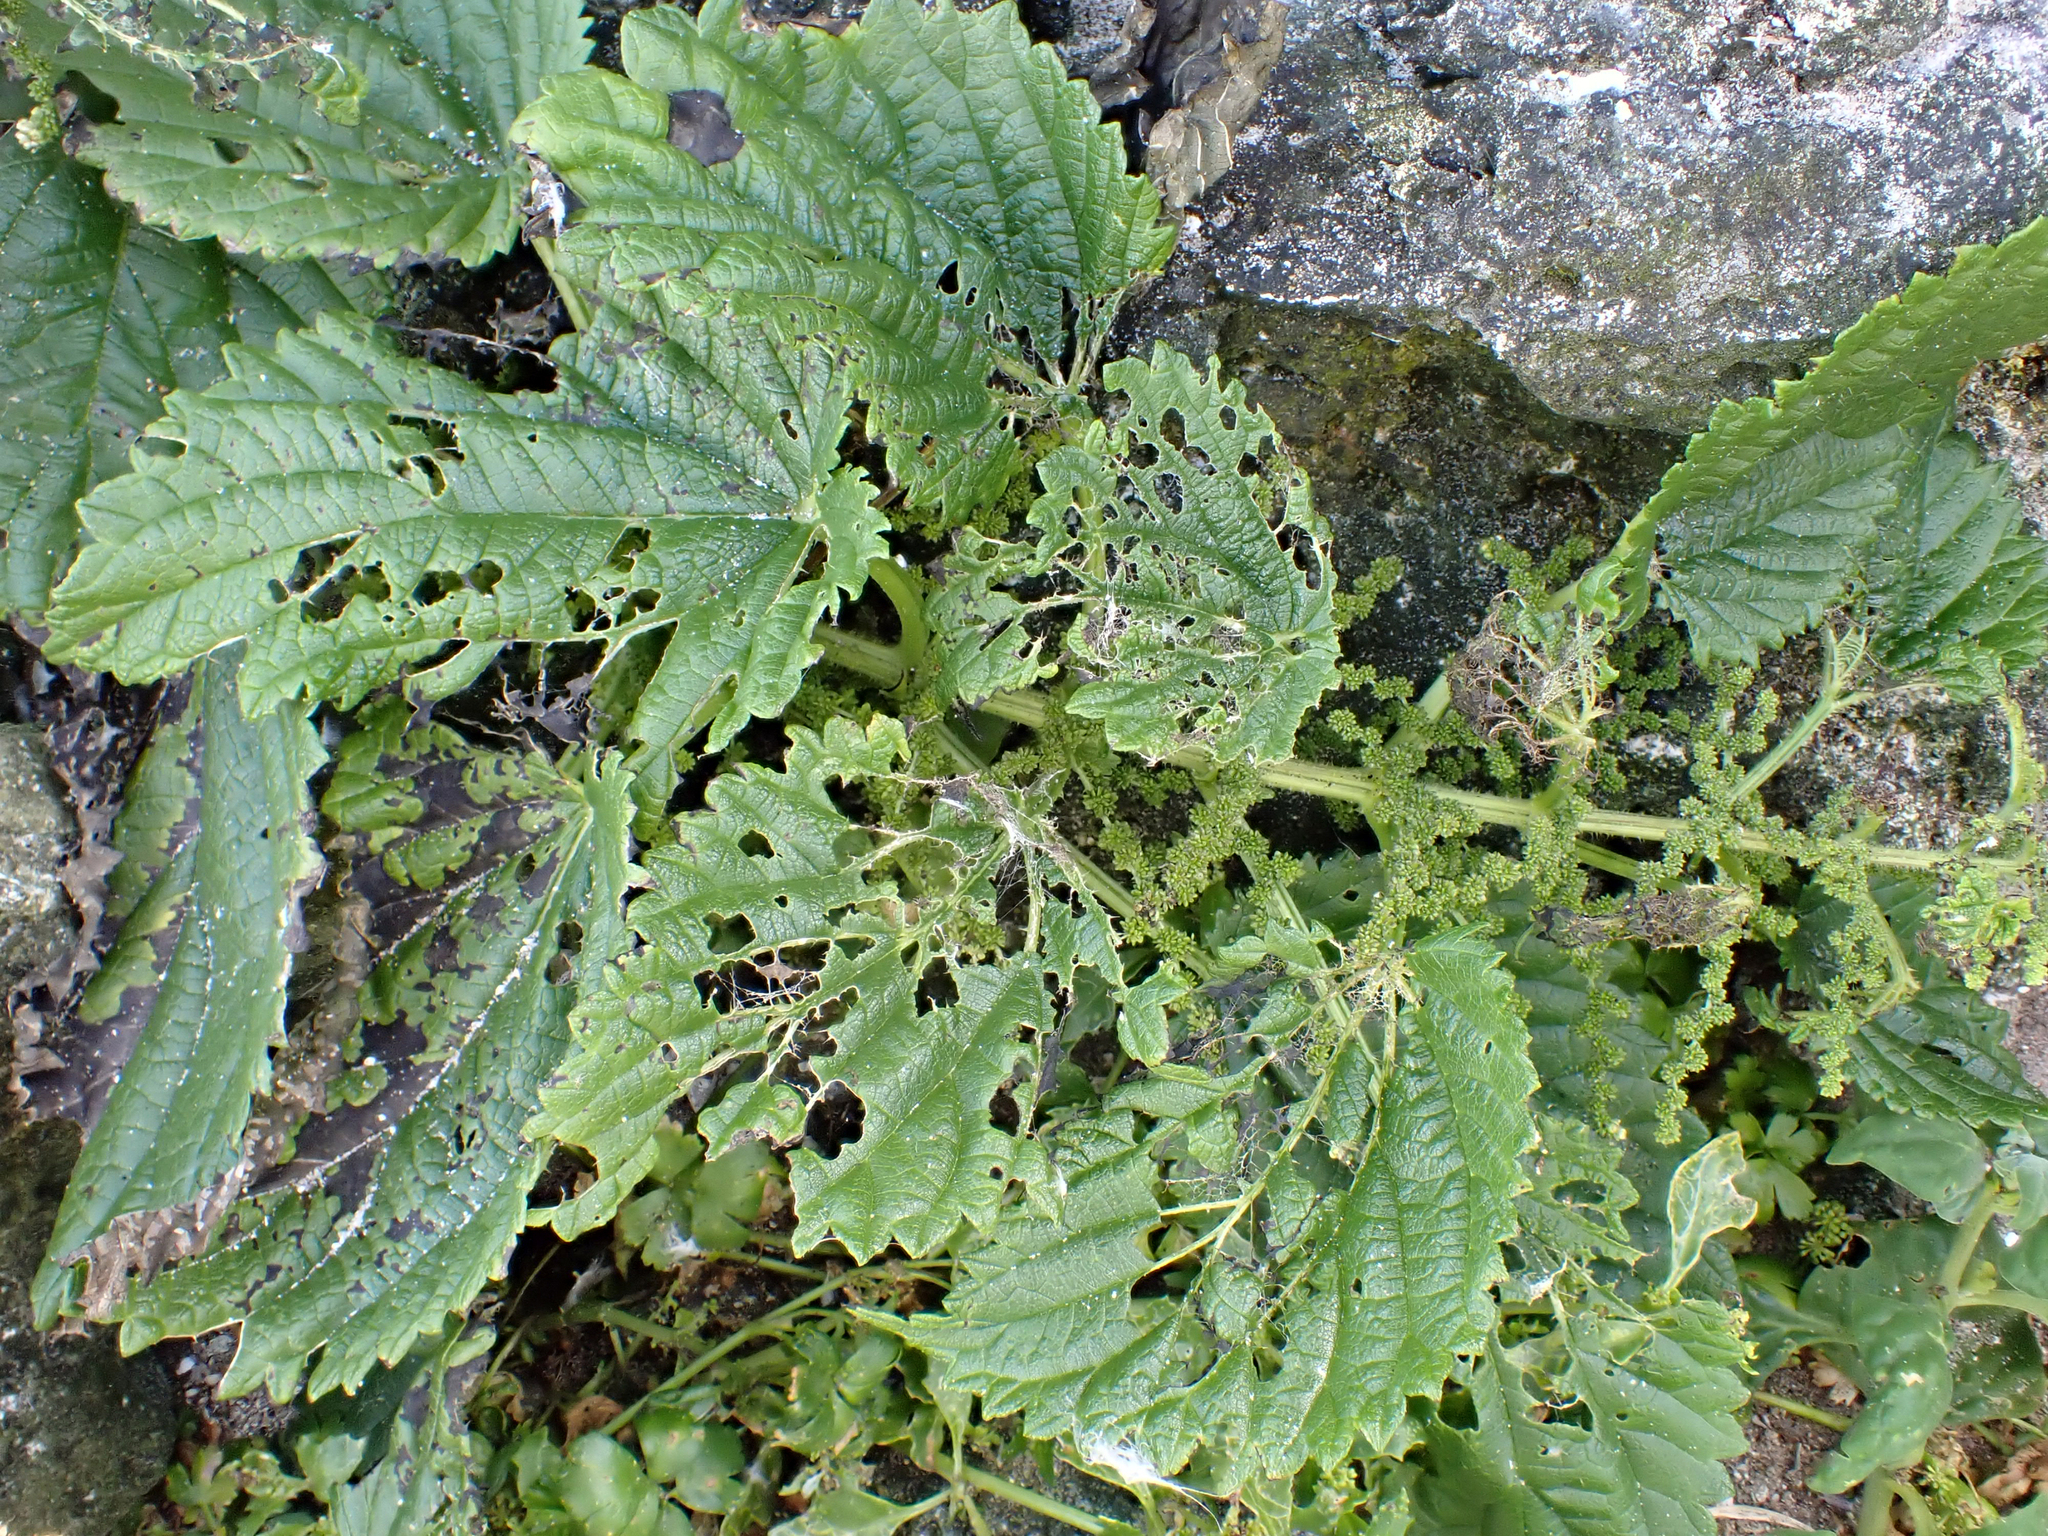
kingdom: Plantae
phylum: Tracheophyta
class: Magnoliopsida
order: Rosales
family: Urticaceae
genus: Urtica
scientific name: Urtica australis
